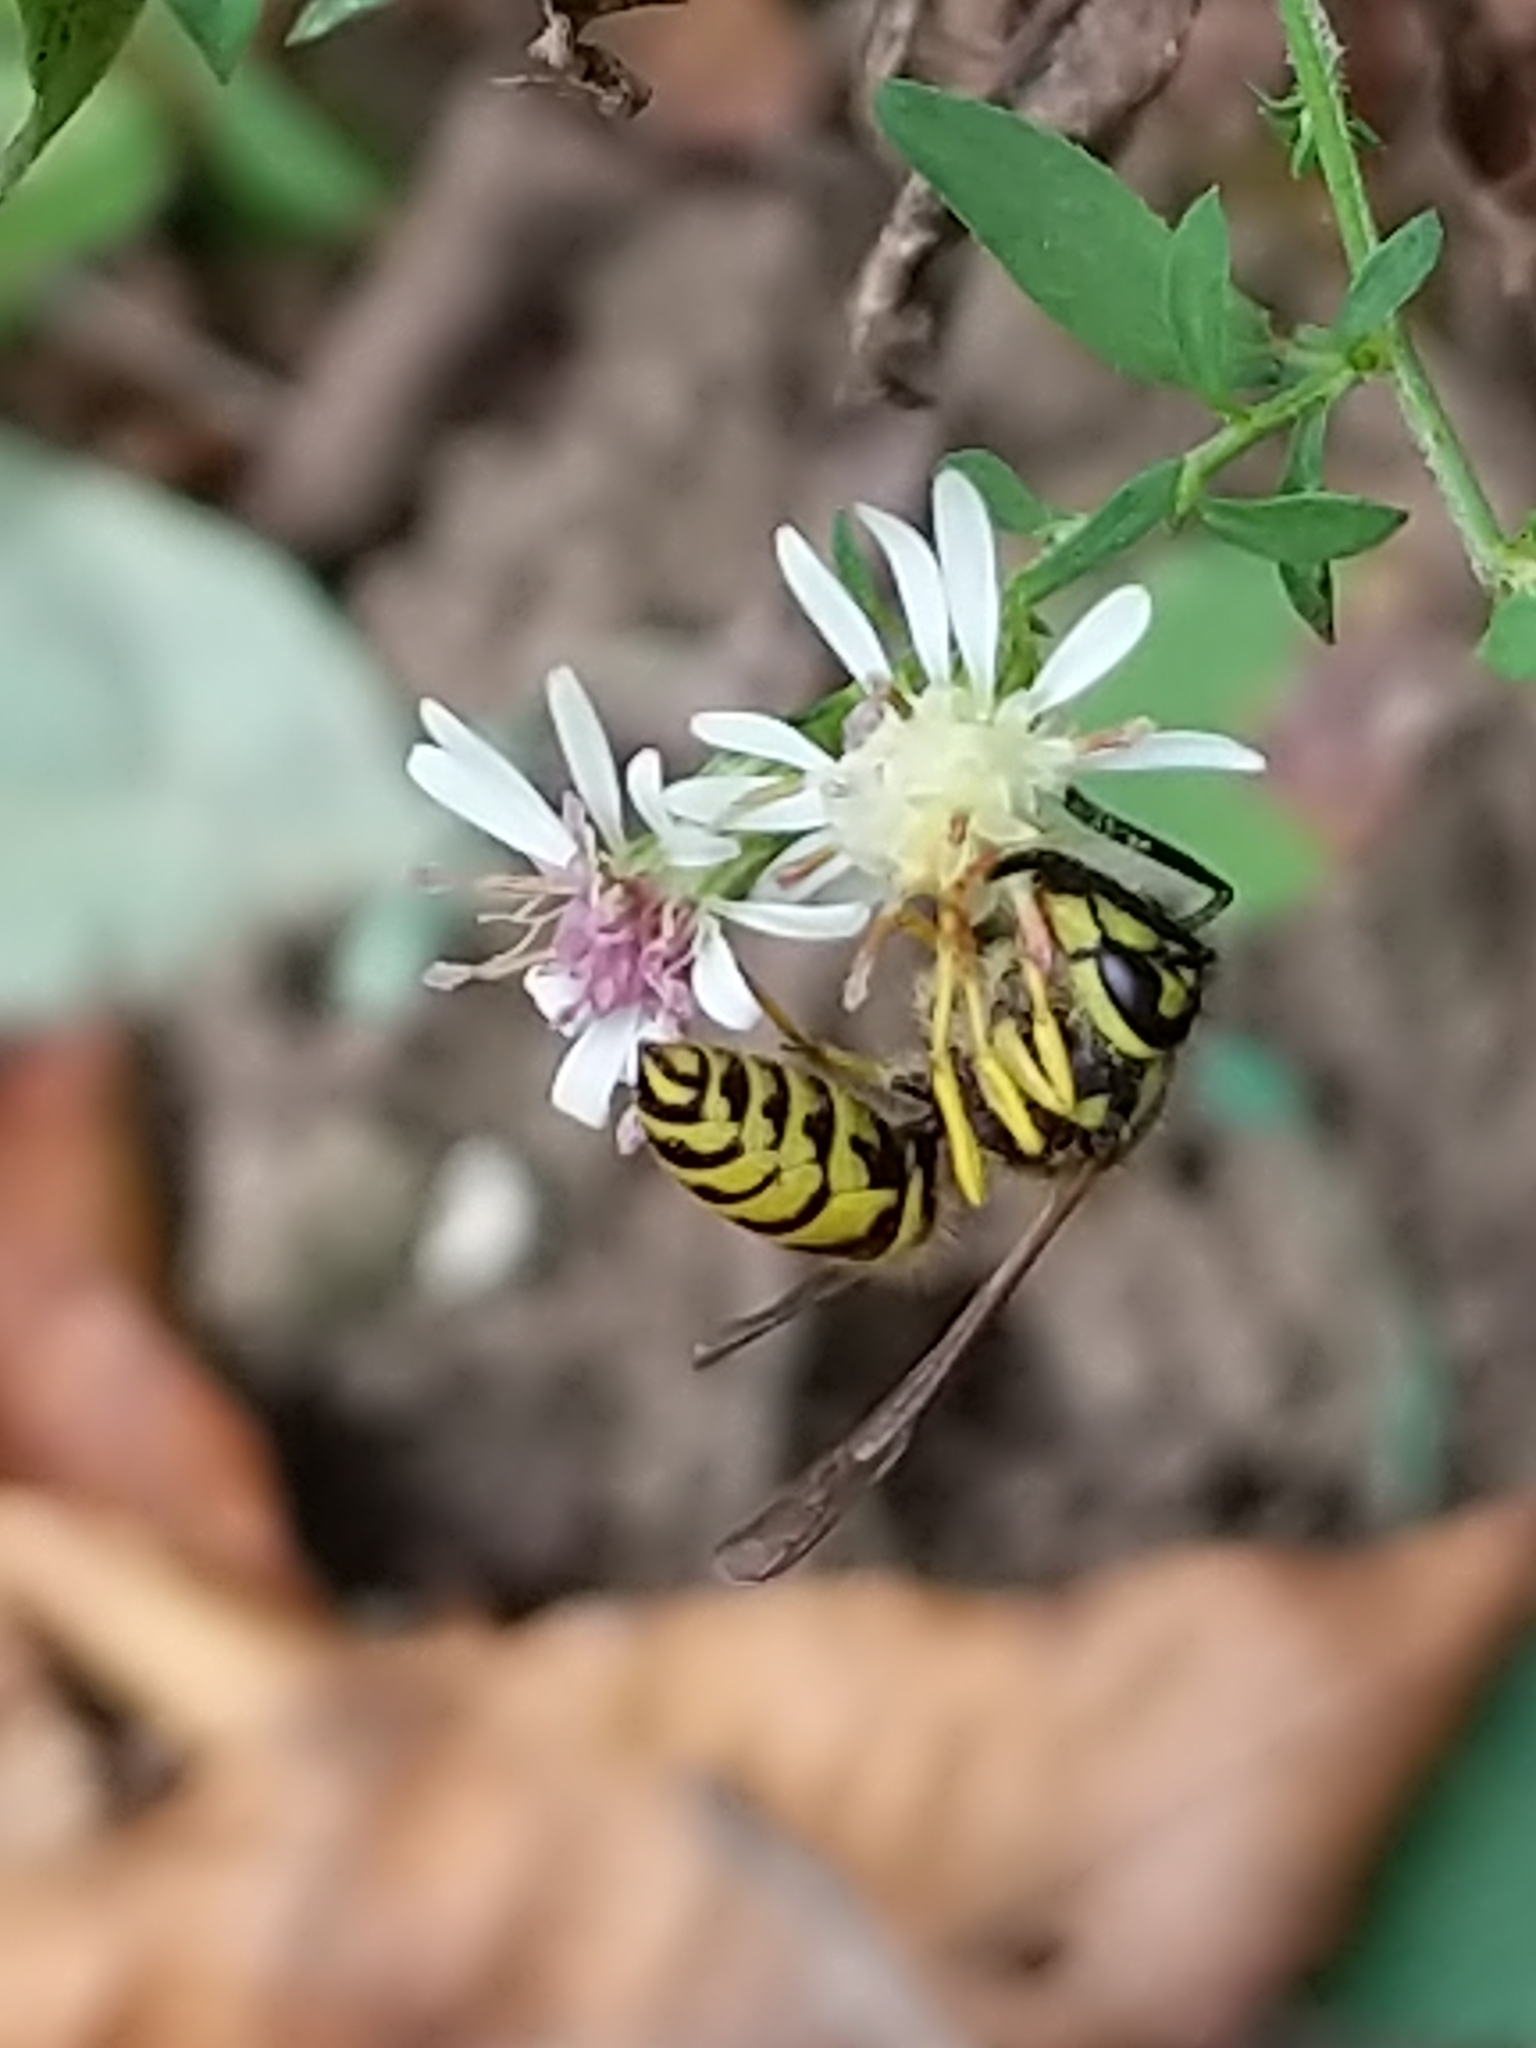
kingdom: Animalia
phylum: Arthropoda
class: Insecta
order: Hymenoptera
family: Vespidae
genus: Vespula
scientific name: Vespula
